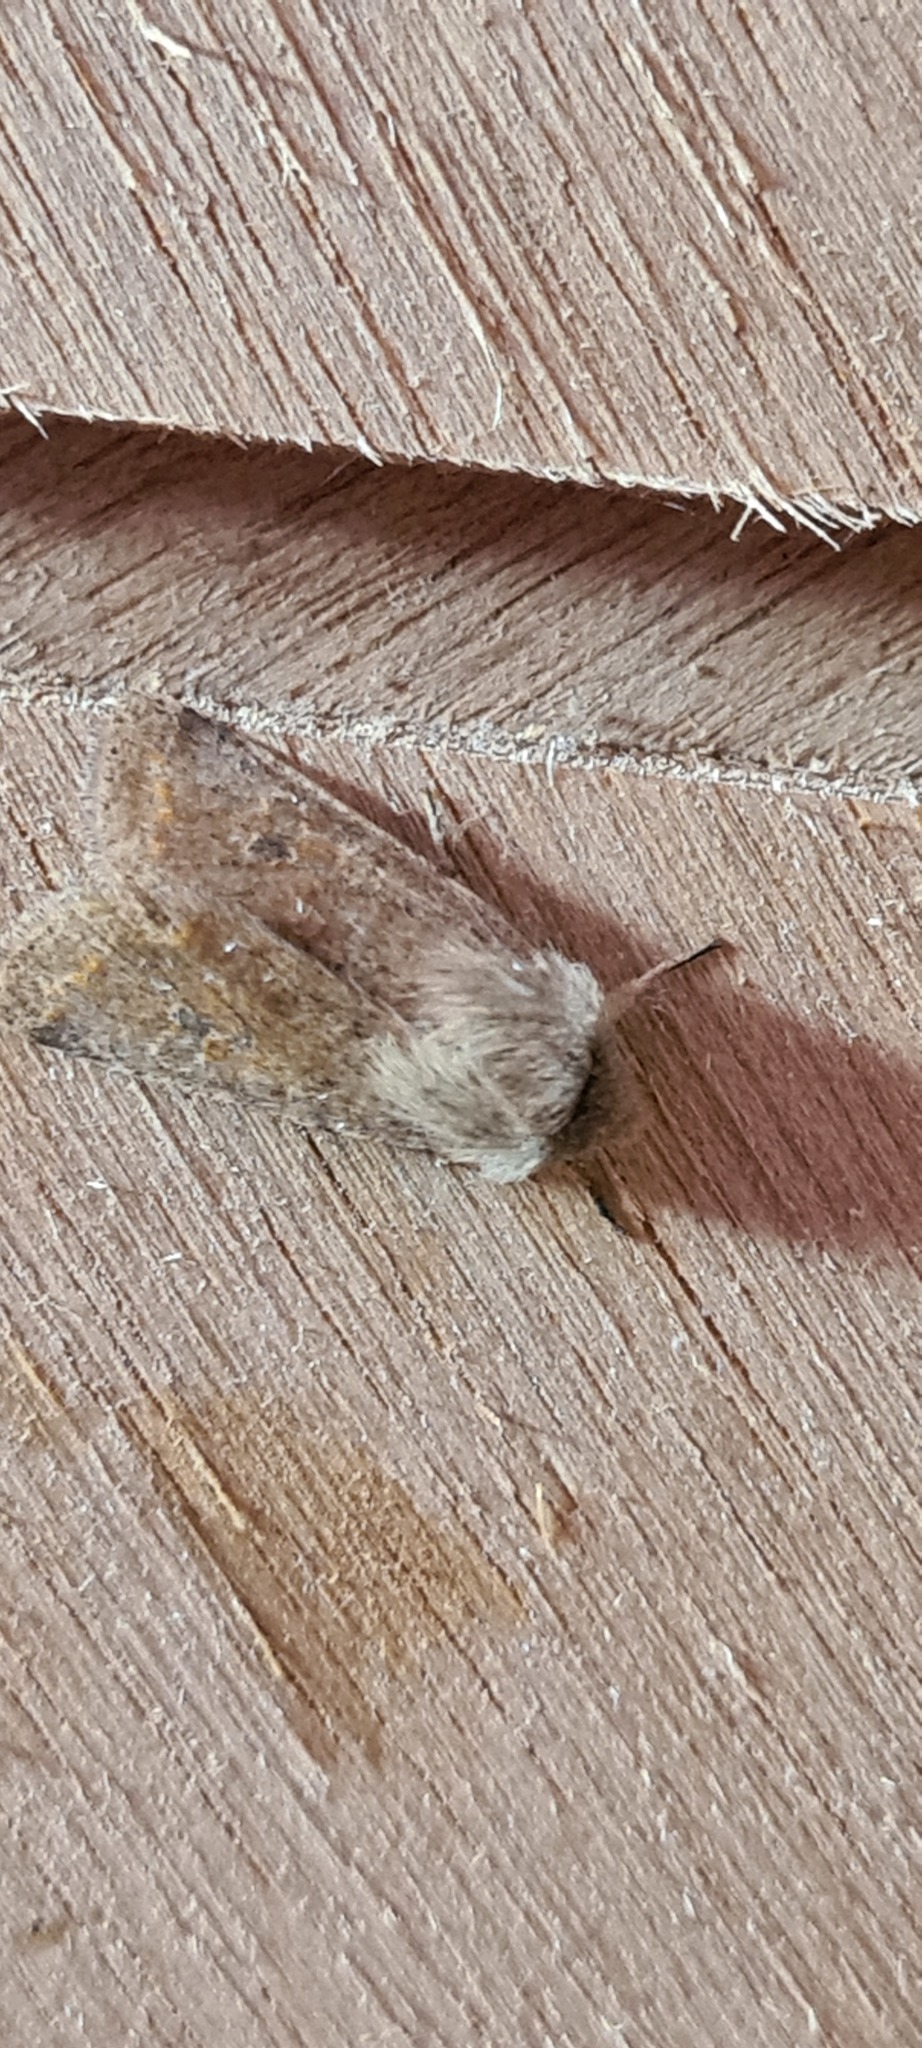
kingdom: Animalia
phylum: Arthropoda
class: Insecta
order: Lepidoptera
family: Noctuidae
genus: Orthosia
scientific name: Orthosia cruda
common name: Small quaker
